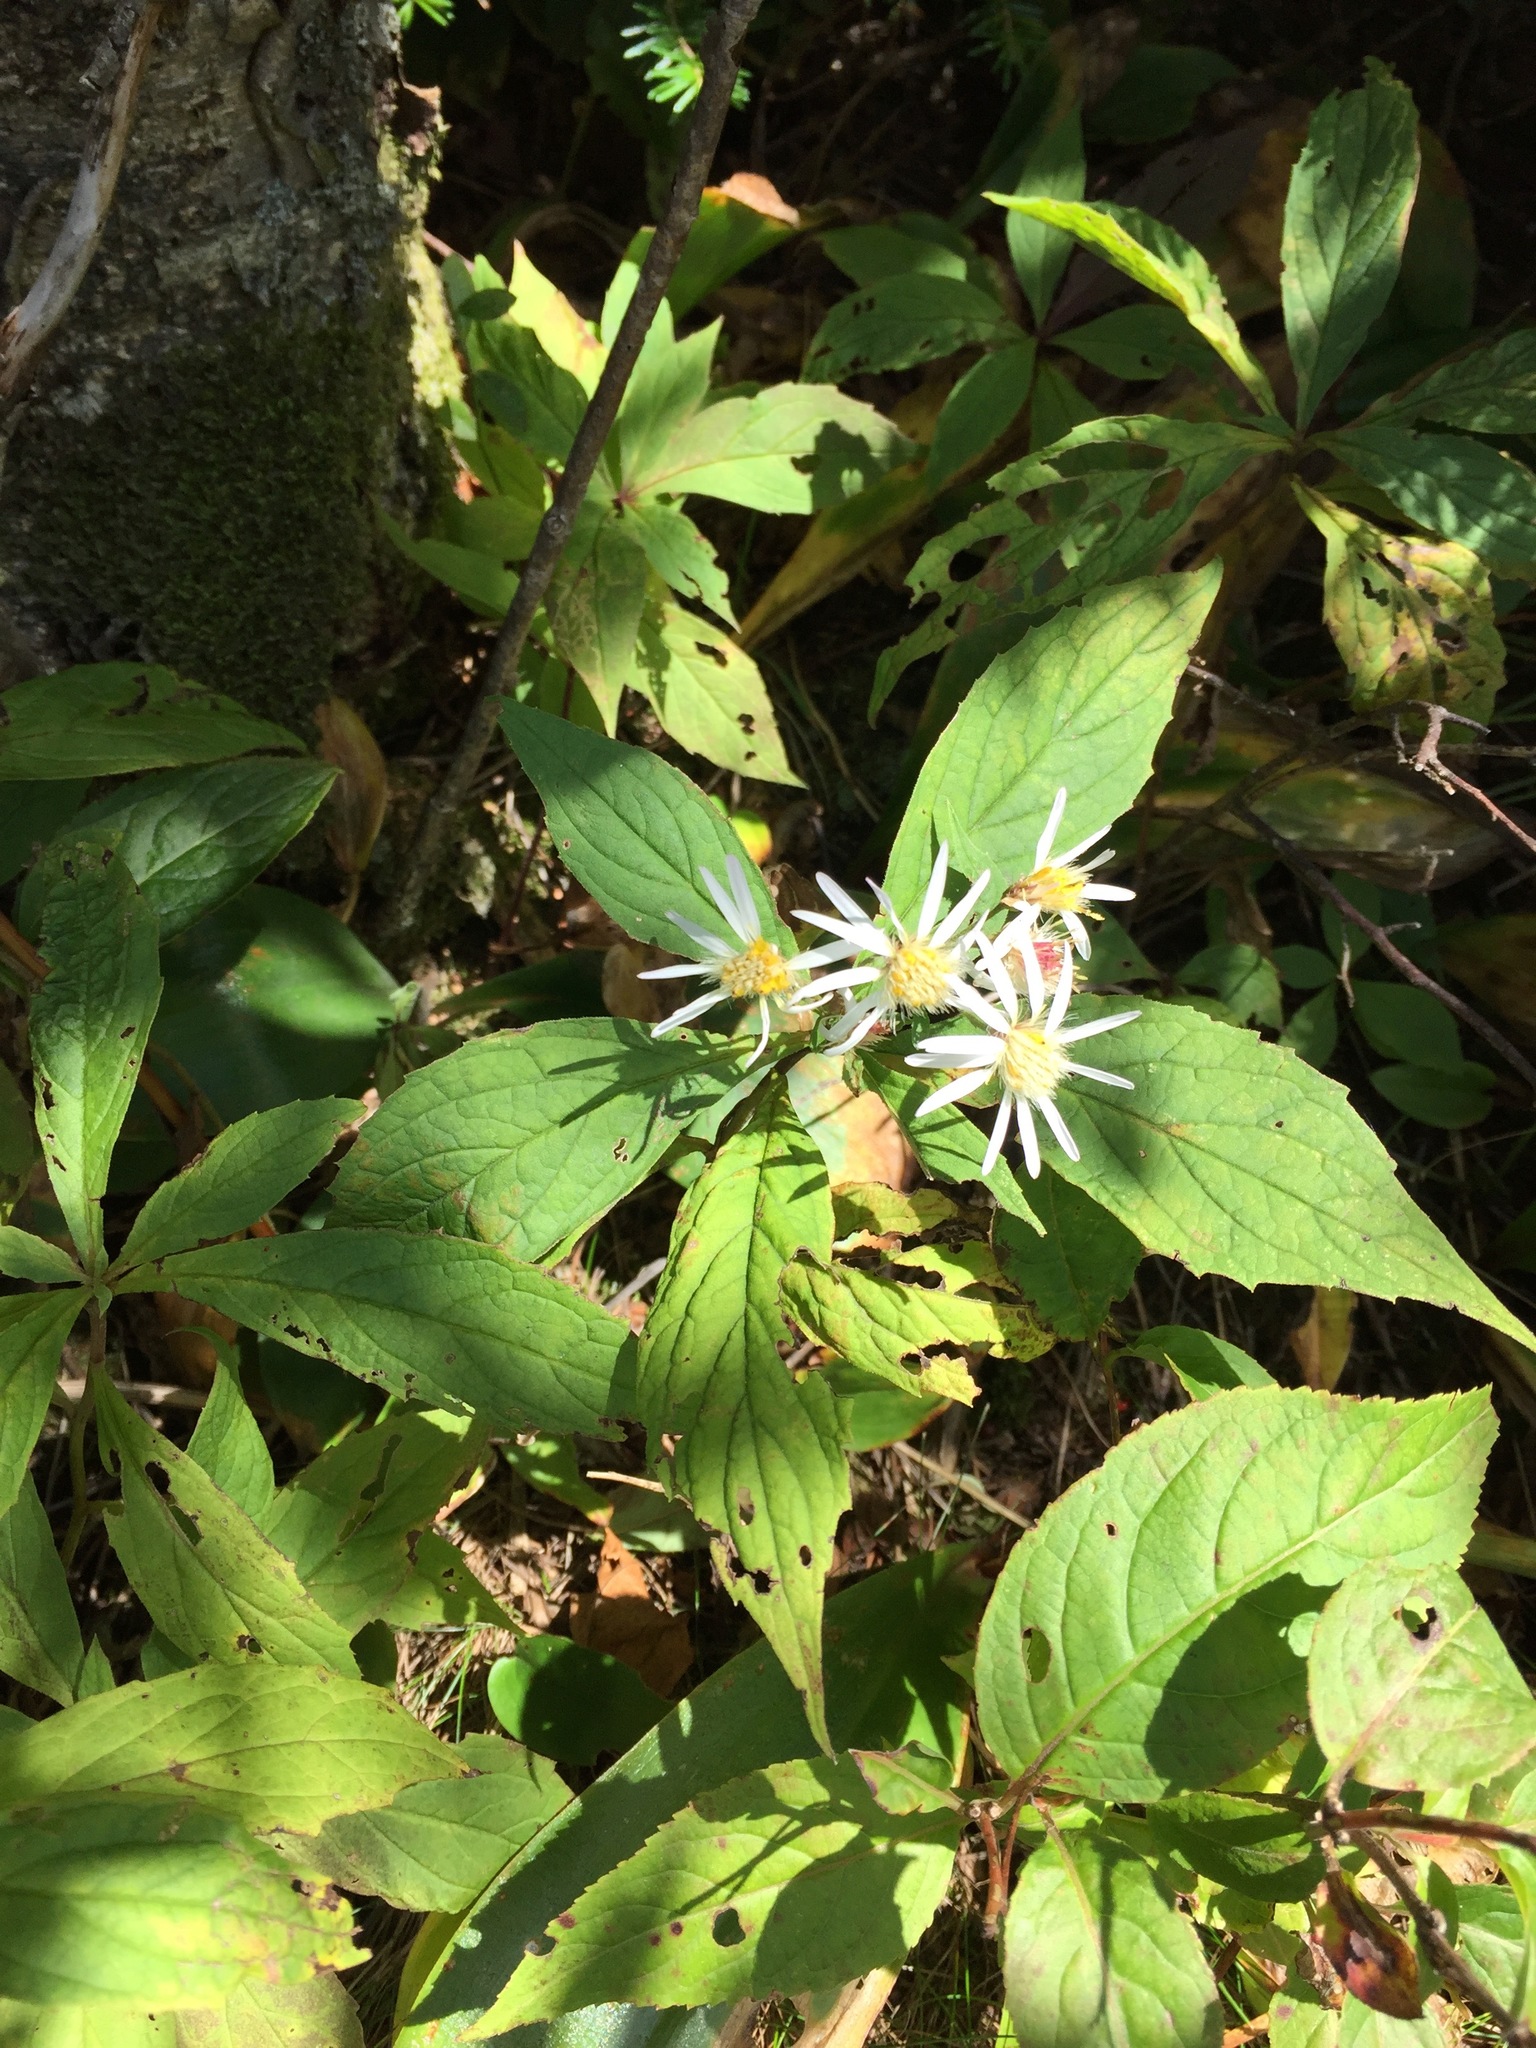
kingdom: Plantae
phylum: Tracheophyta
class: Magnoliopsida
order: Asterales
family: Asteraceae
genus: Oclemena
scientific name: Oclemena acuminata
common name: Mountain aster
